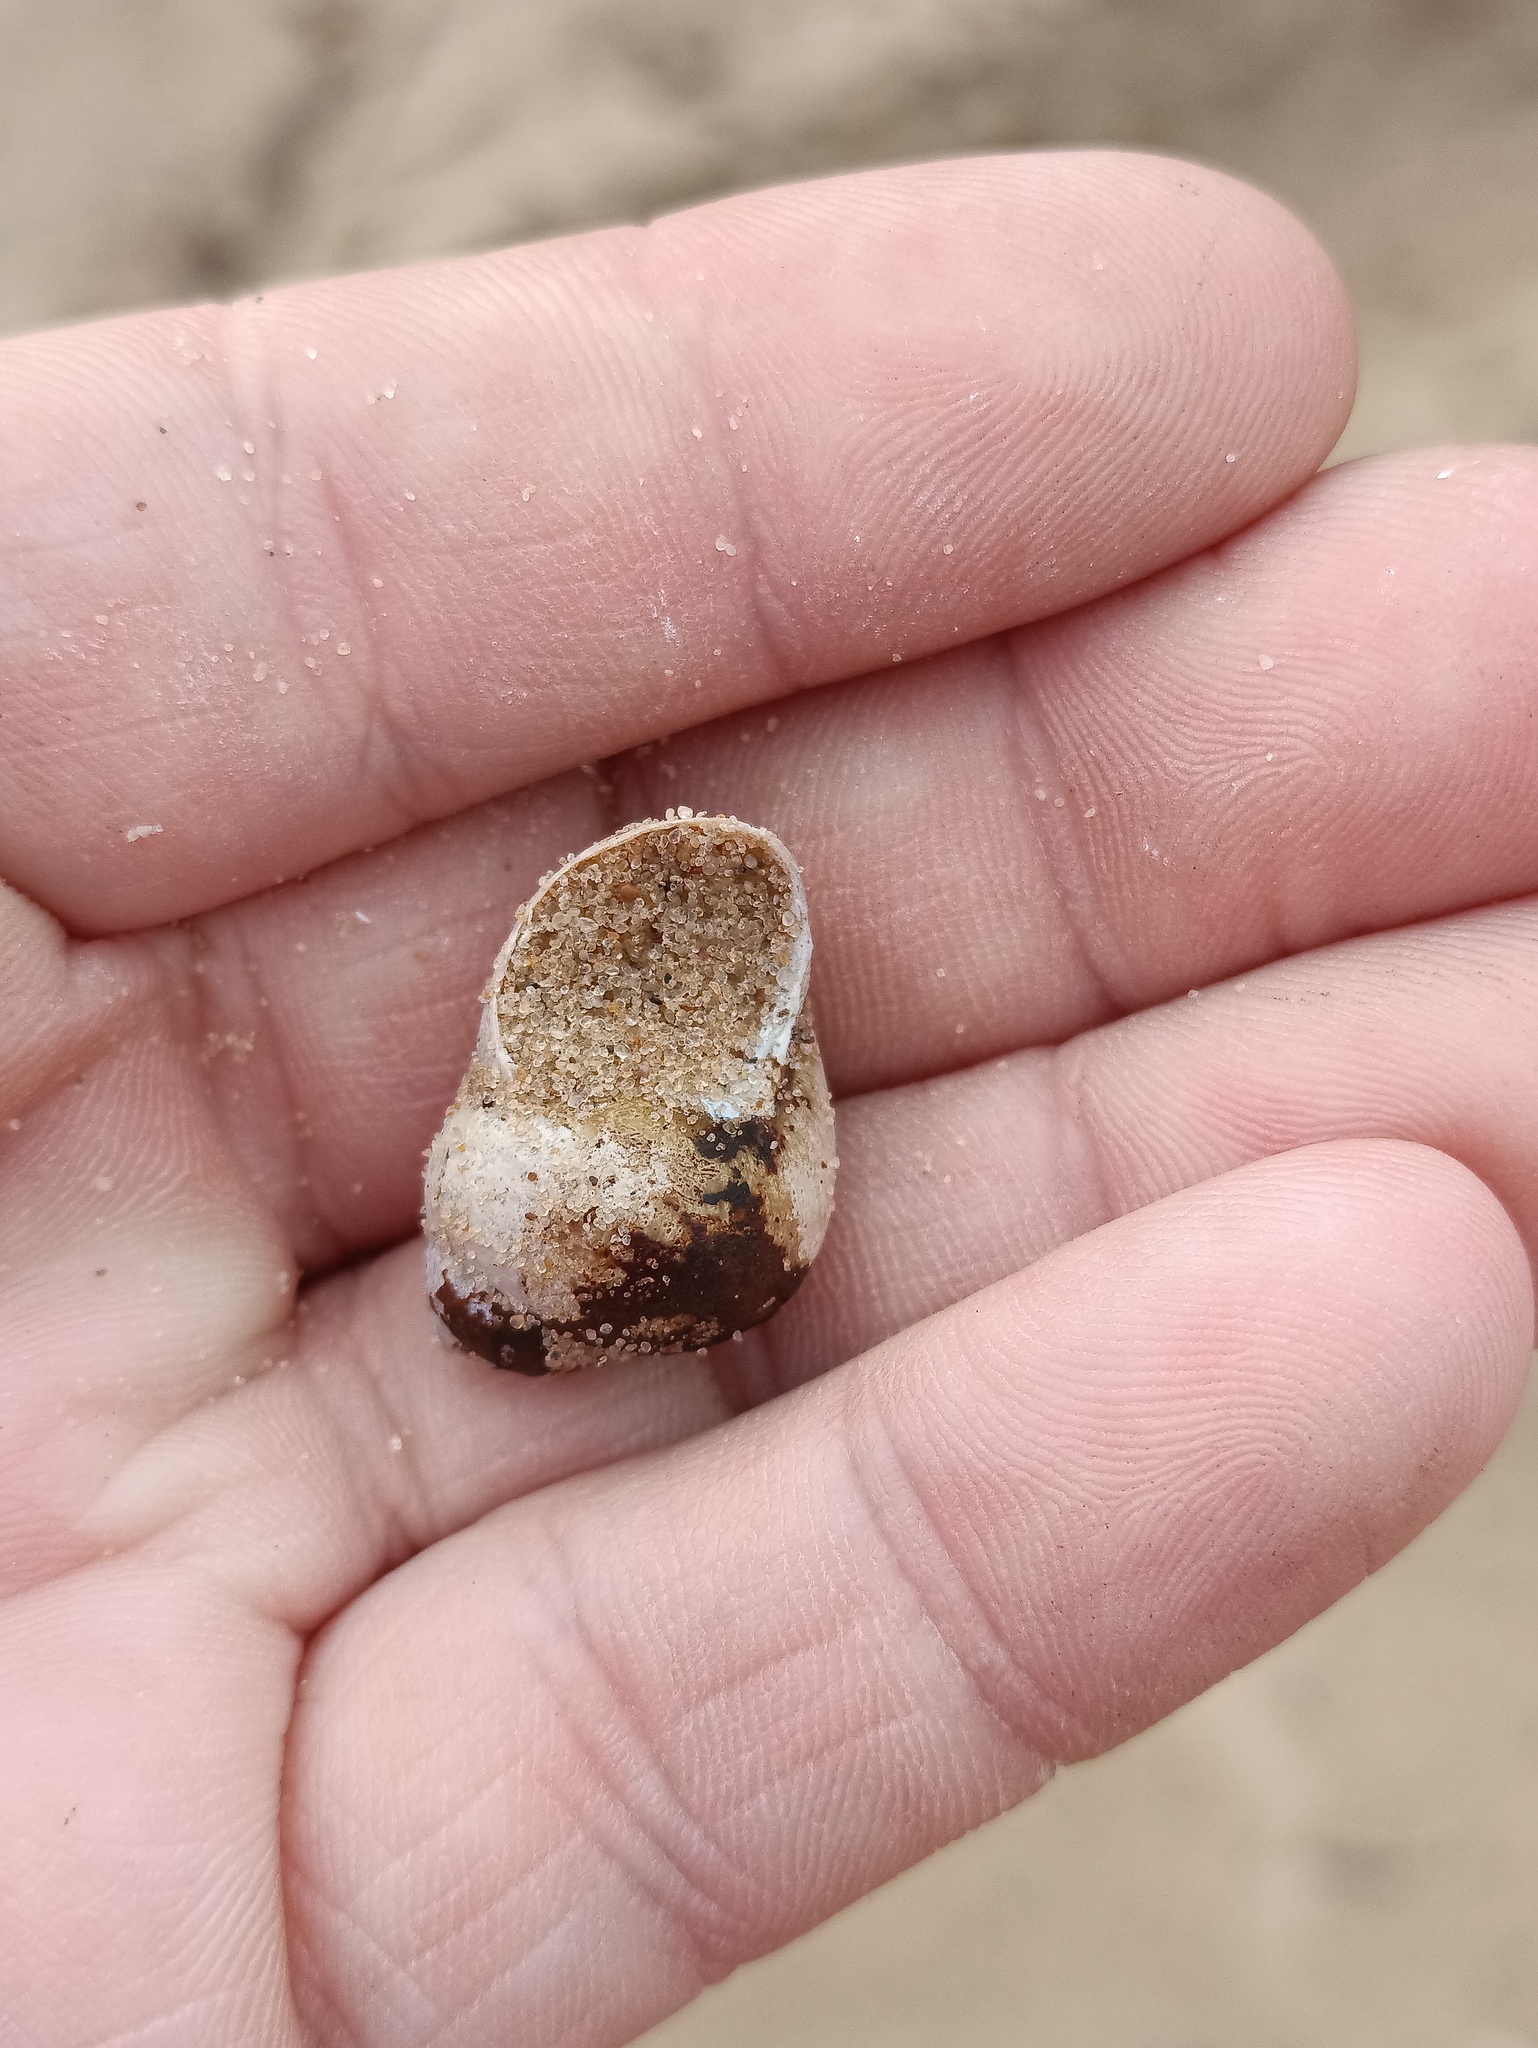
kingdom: Animalia
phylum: Mollusca
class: Gastropoda
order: Architaenioglossa
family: Viviparidae
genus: Viviparus
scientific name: Viviparus viviparus
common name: River snail
